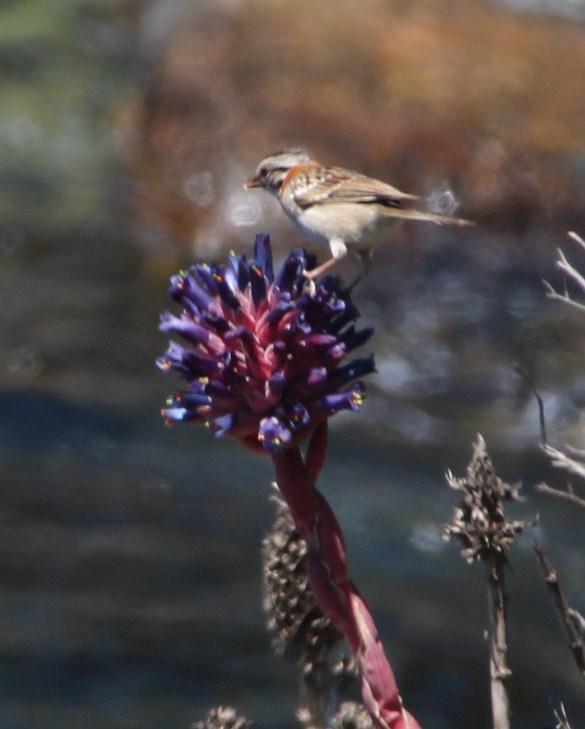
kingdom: Plantae
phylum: Tracheophyta
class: Liliopsida
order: Poales
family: Bromeliaceae
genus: Puya
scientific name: Puya venusta
